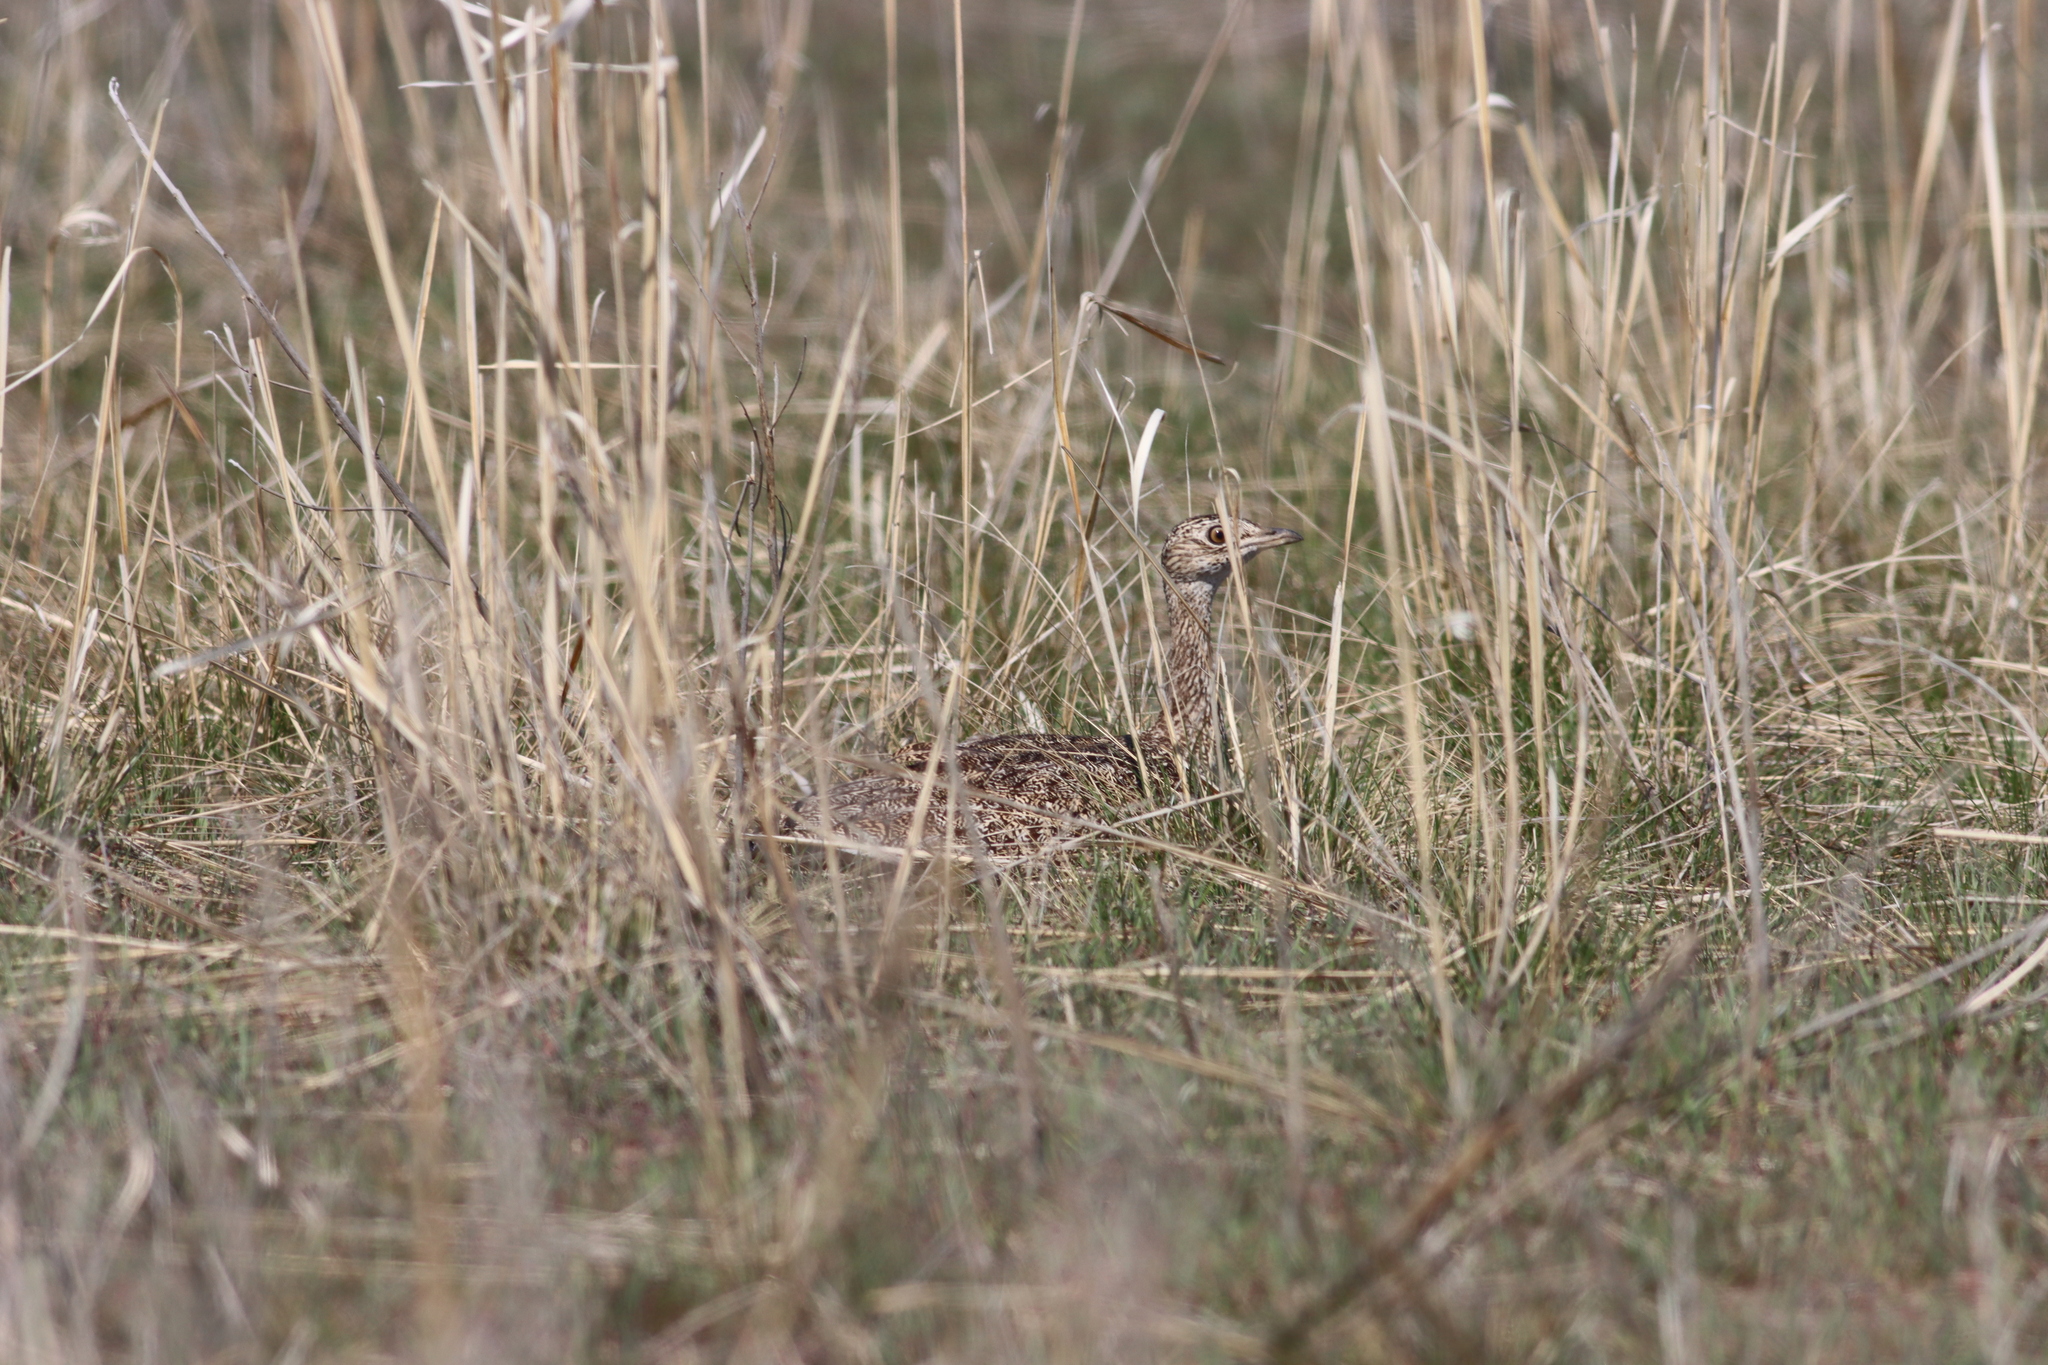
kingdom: Animalia
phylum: Chordata
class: Aves
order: Otidiformes
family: Otididae
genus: Tetrax
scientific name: Tetrax tetrax
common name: Little bustard
